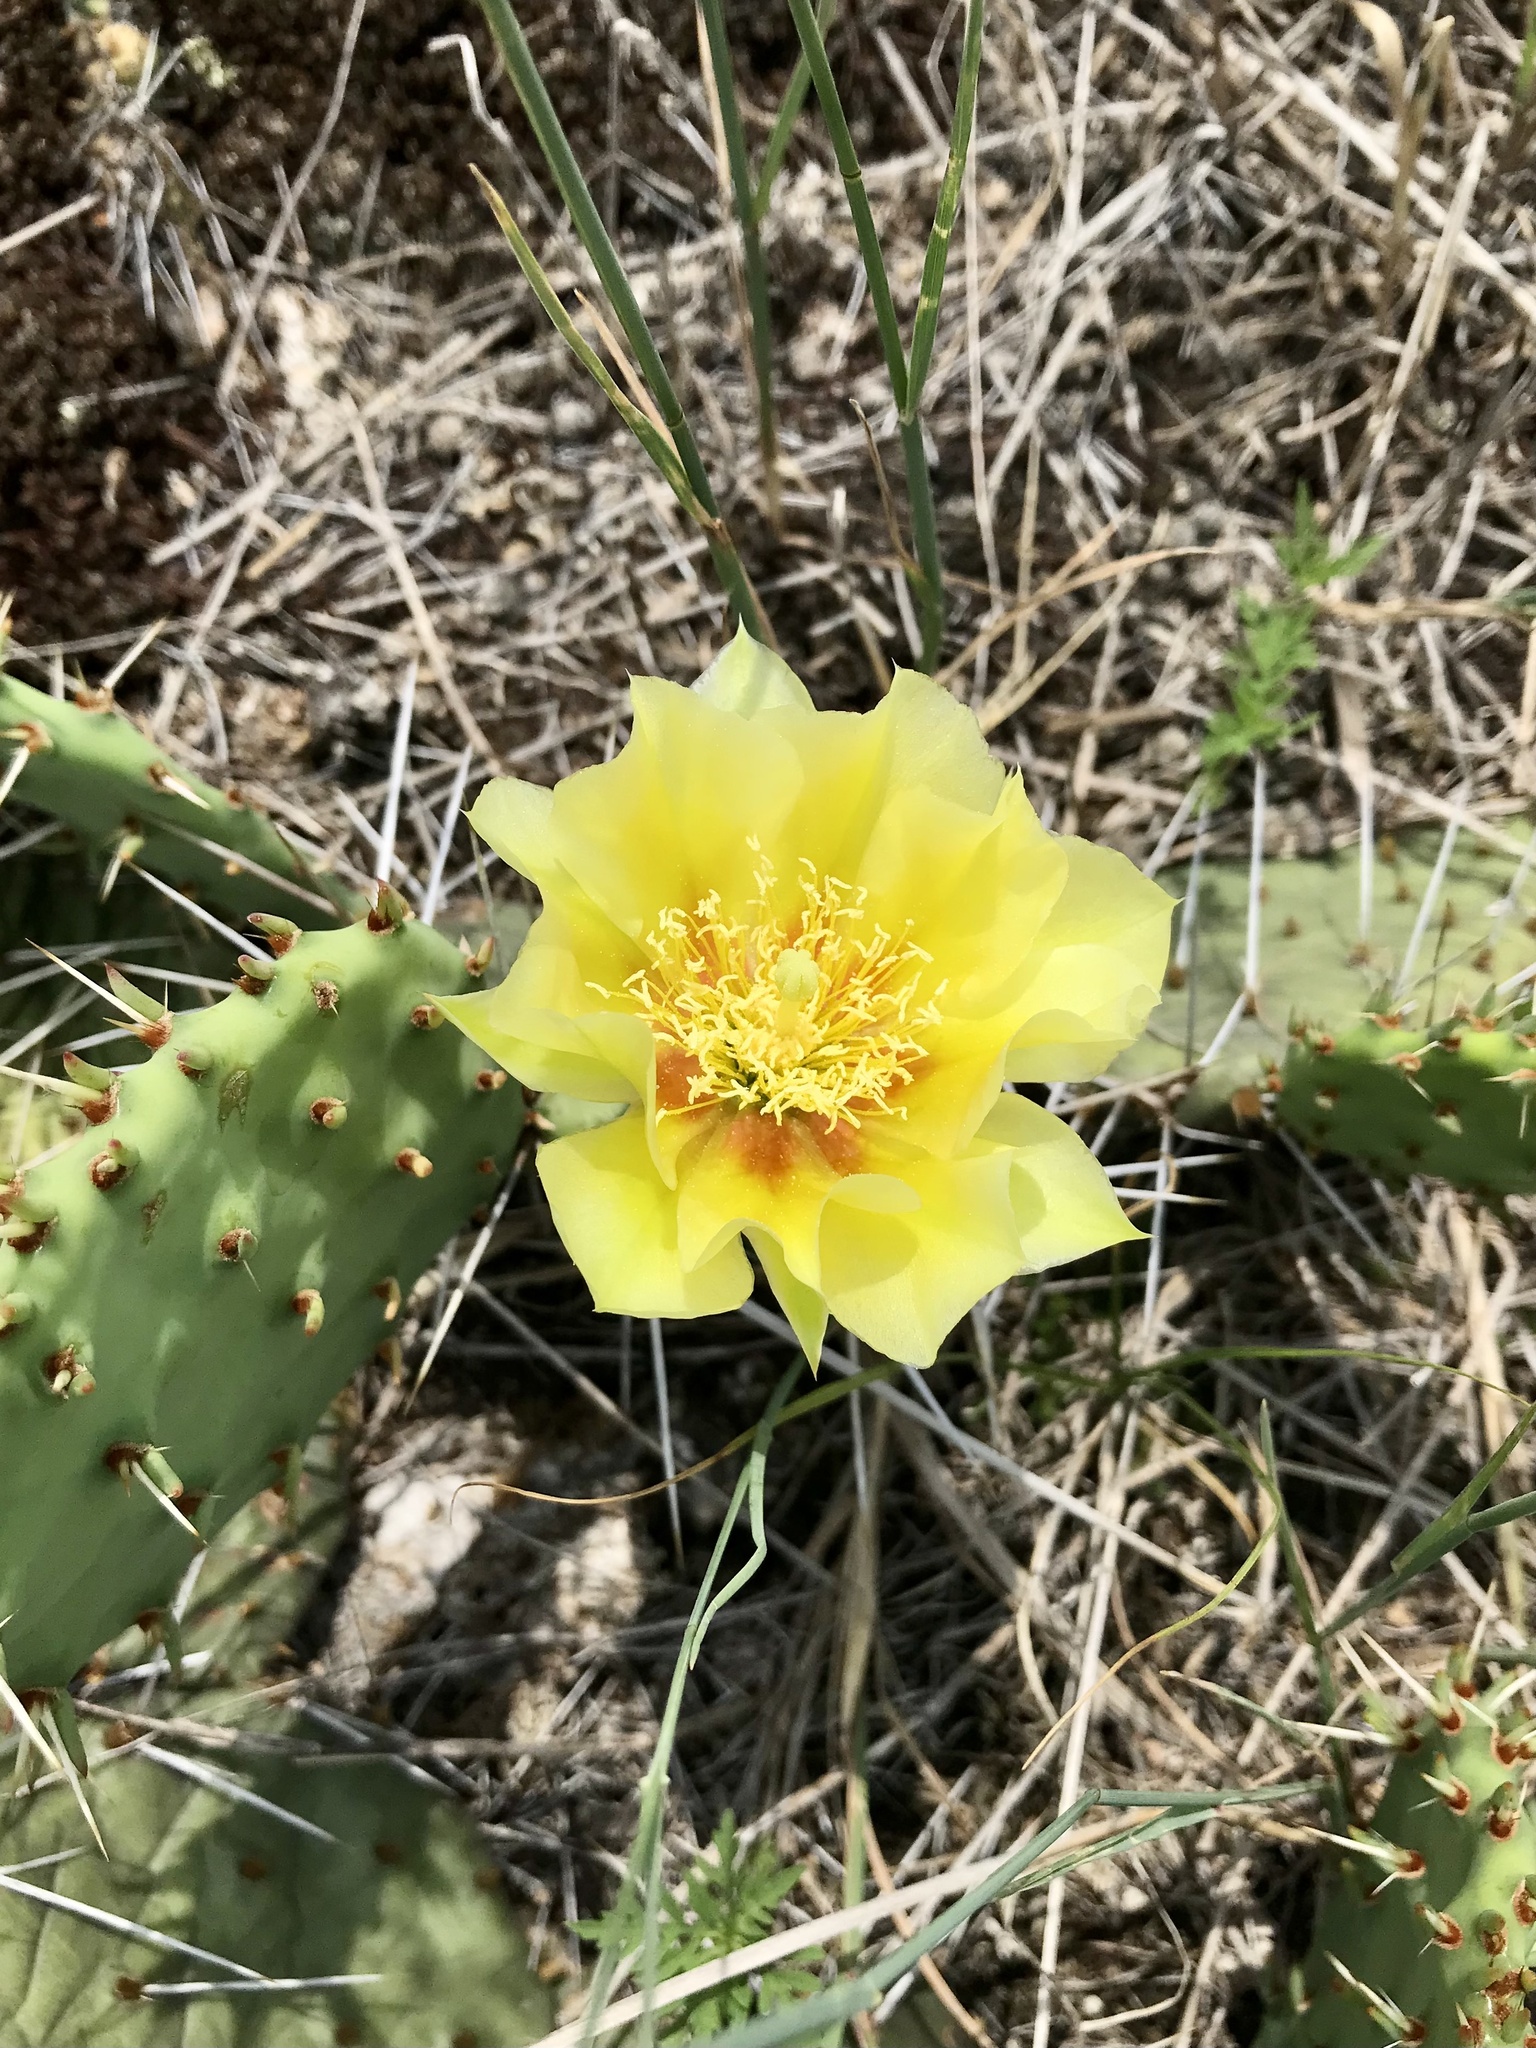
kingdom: Plantae
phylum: Tracheophyta
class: Magnoliopsida
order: Caryophyllales
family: Cactaceae
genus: Opuntia
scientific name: Opuntia macrorhiza
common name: Grassland pricklypear
